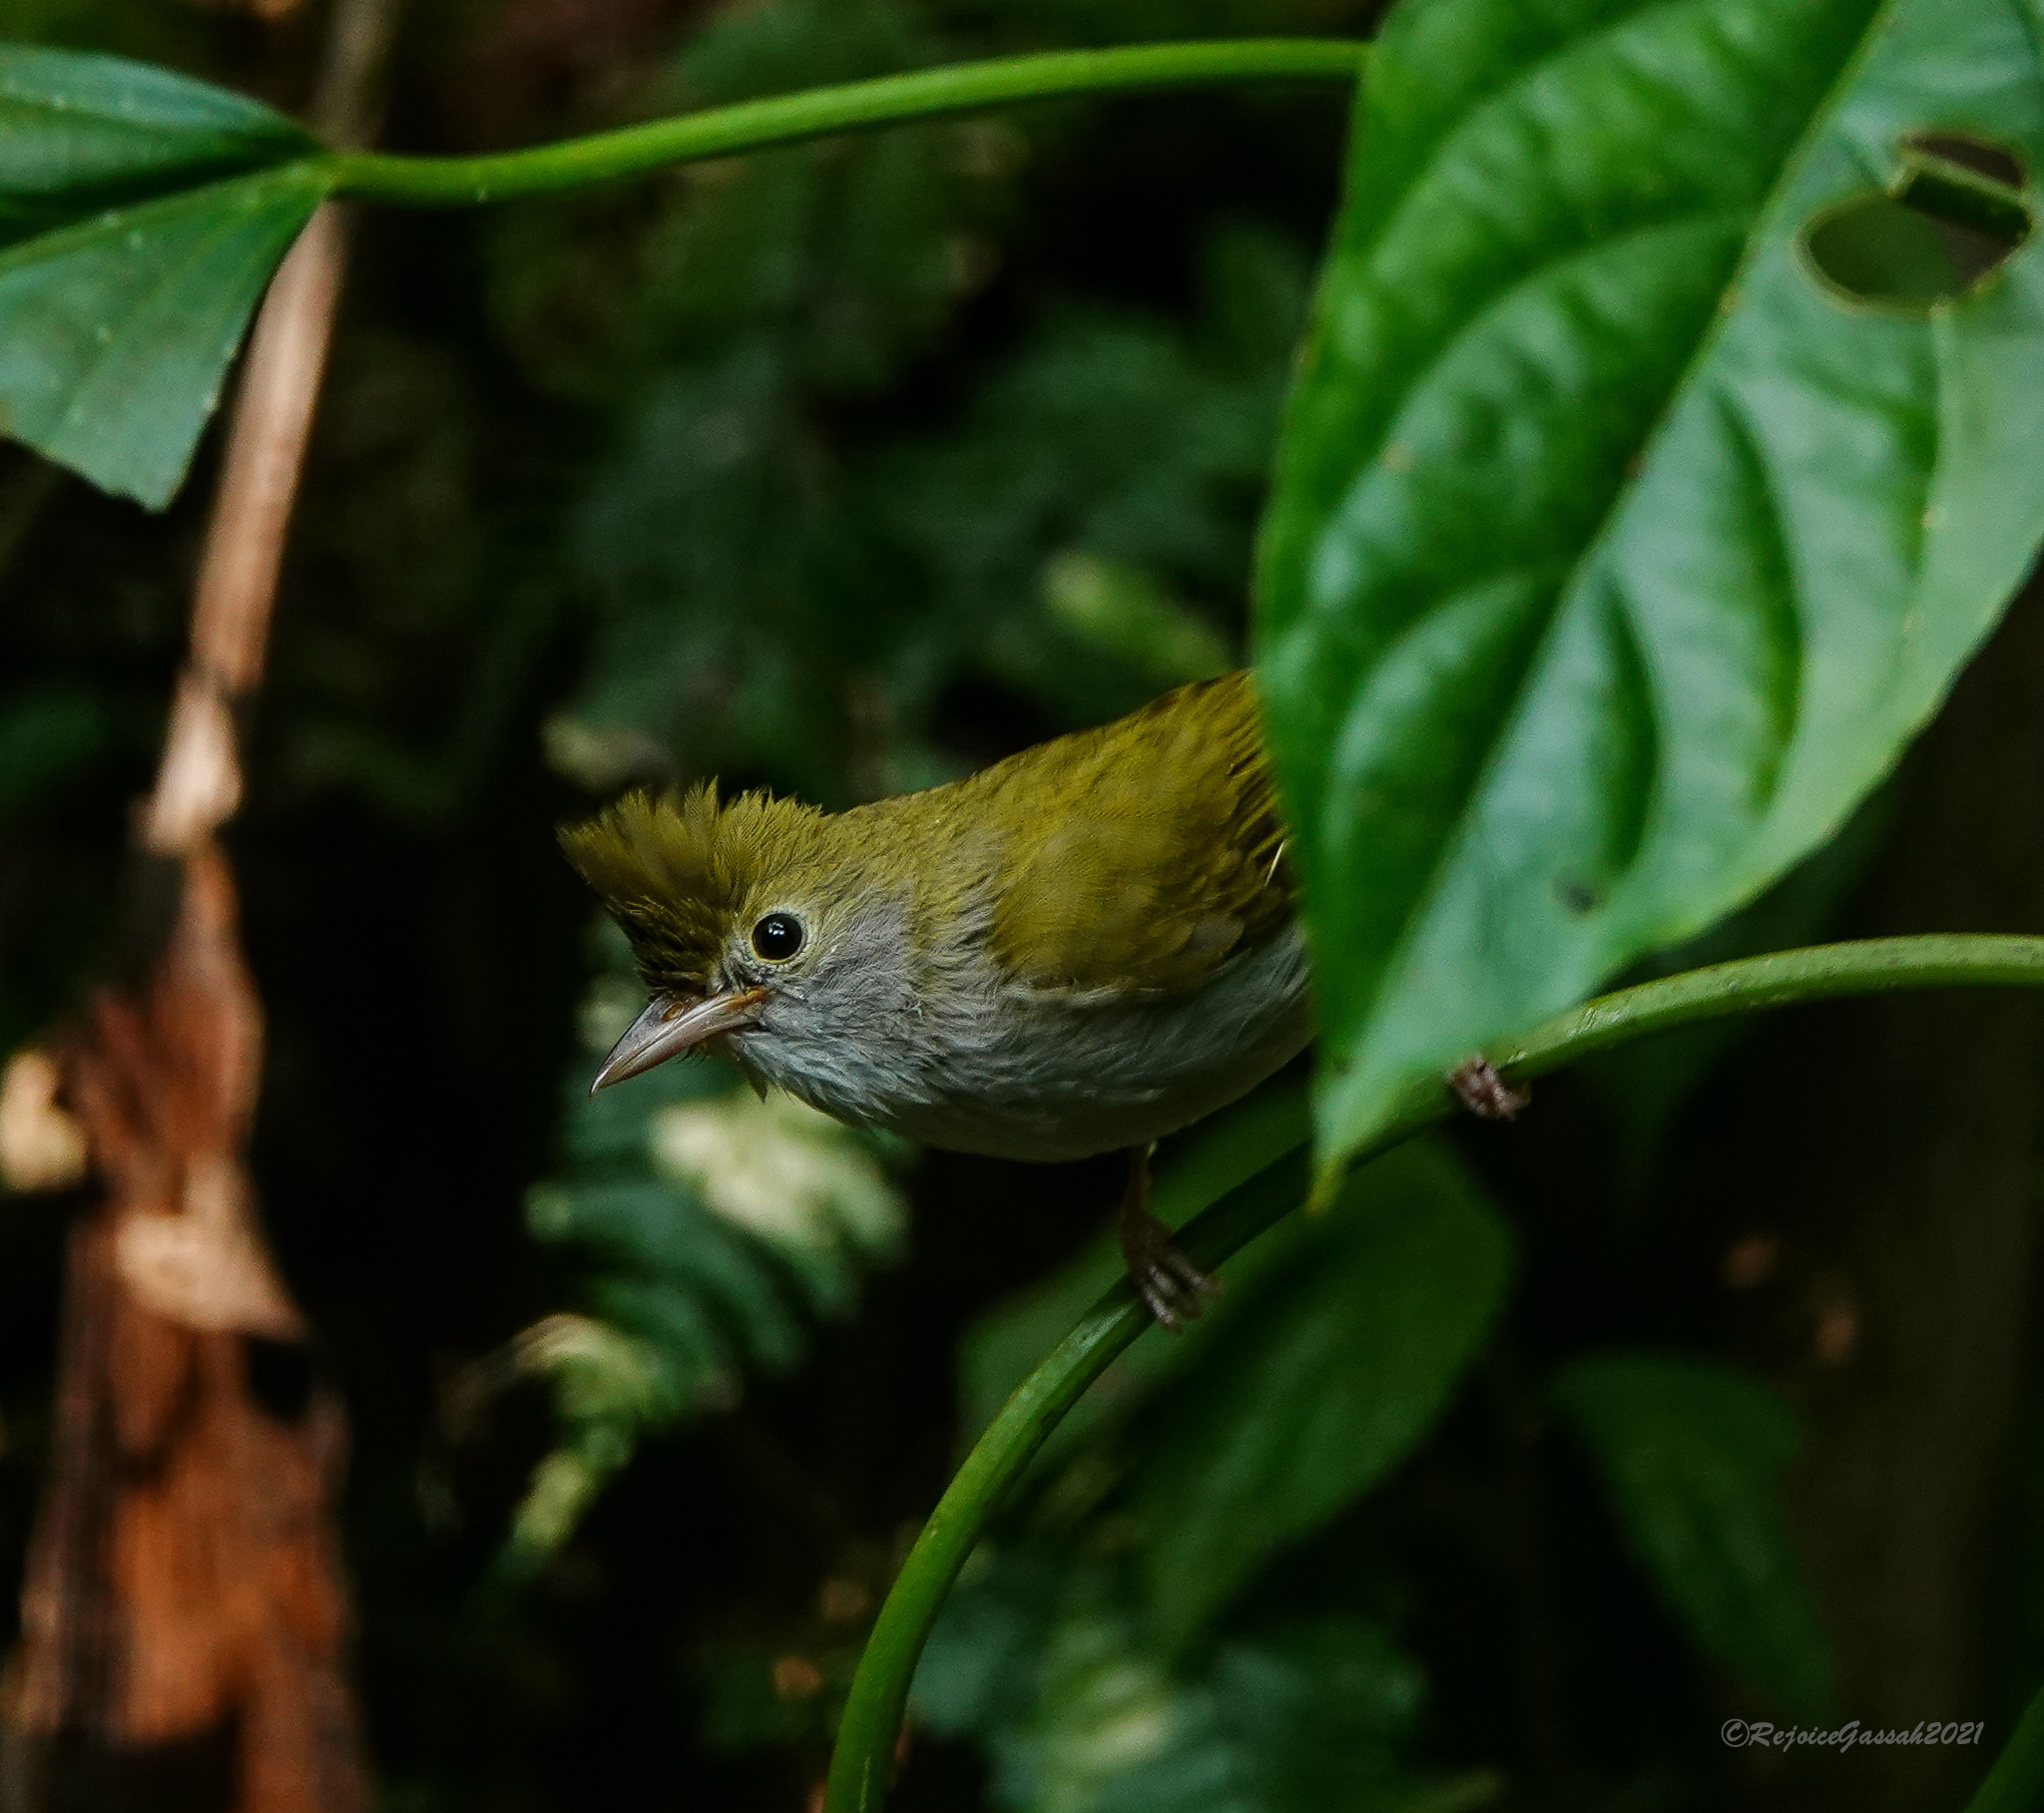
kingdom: Animalia
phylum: Chordata
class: Aves
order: Passeriformes
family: Vireonidae
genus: Erpornis
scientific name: Erpornis zantholeuca
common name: White-bellied erpornis
